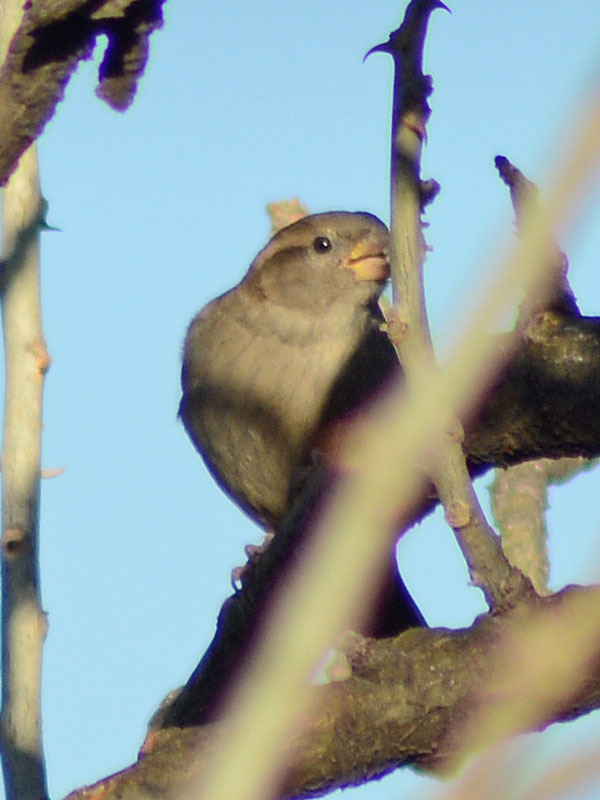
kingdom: Animalia
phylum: Chordata
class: Aves
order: Passeriformes
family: Passeridae
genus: Passer
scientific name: Passer domesticus
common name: House sparrow
